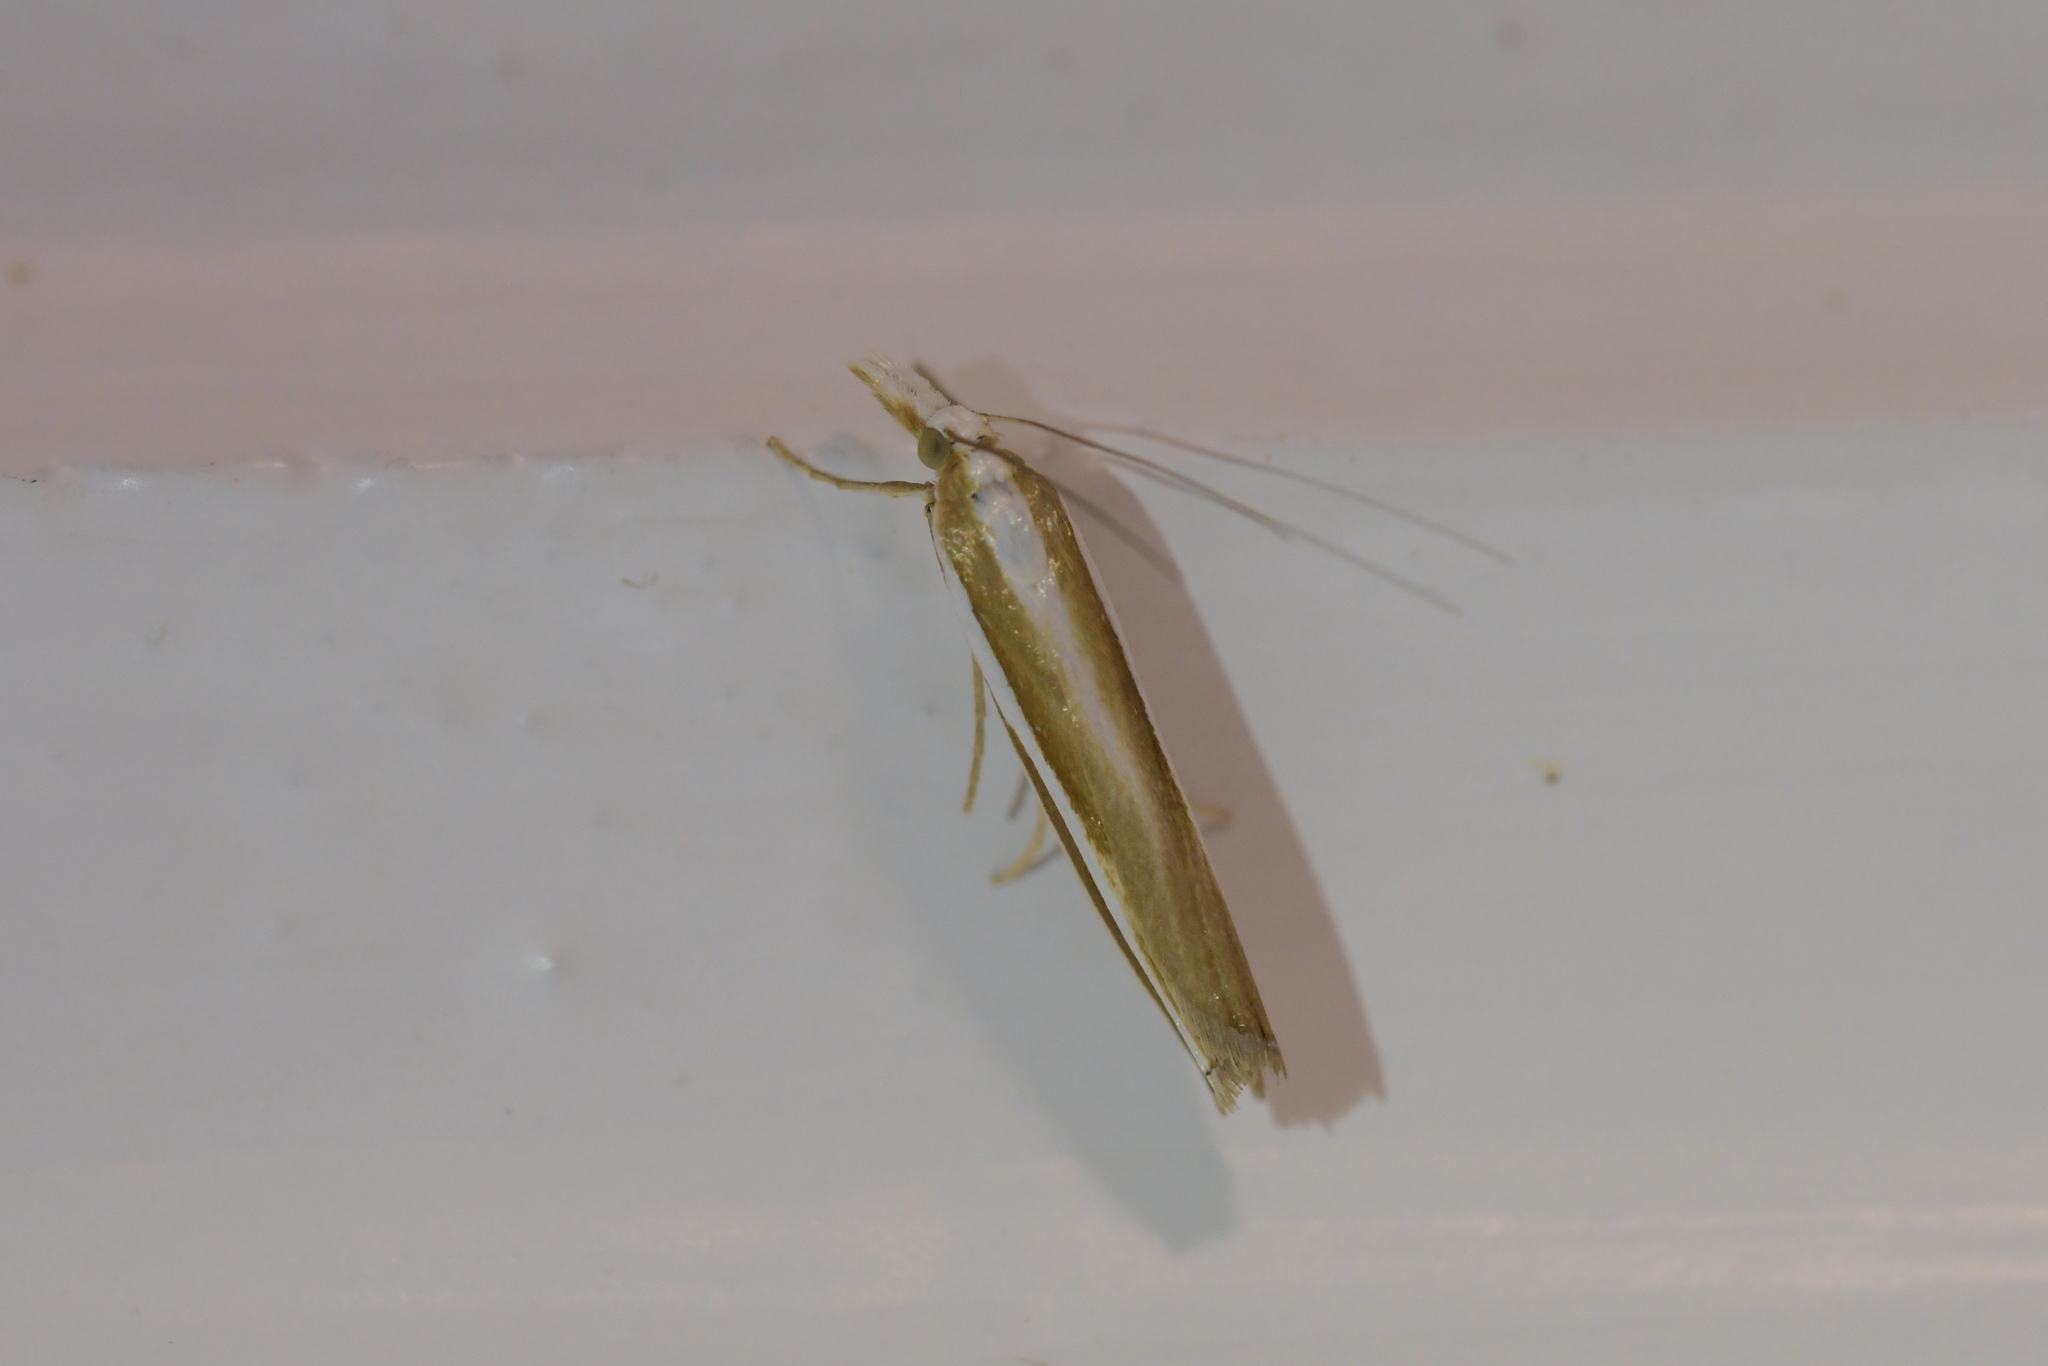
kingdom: Animalia
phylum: Arthropoda
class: Insecta
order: Lepidoptera
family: Crambidae
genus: Orocrambus
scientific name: Orocrambus apicellus
